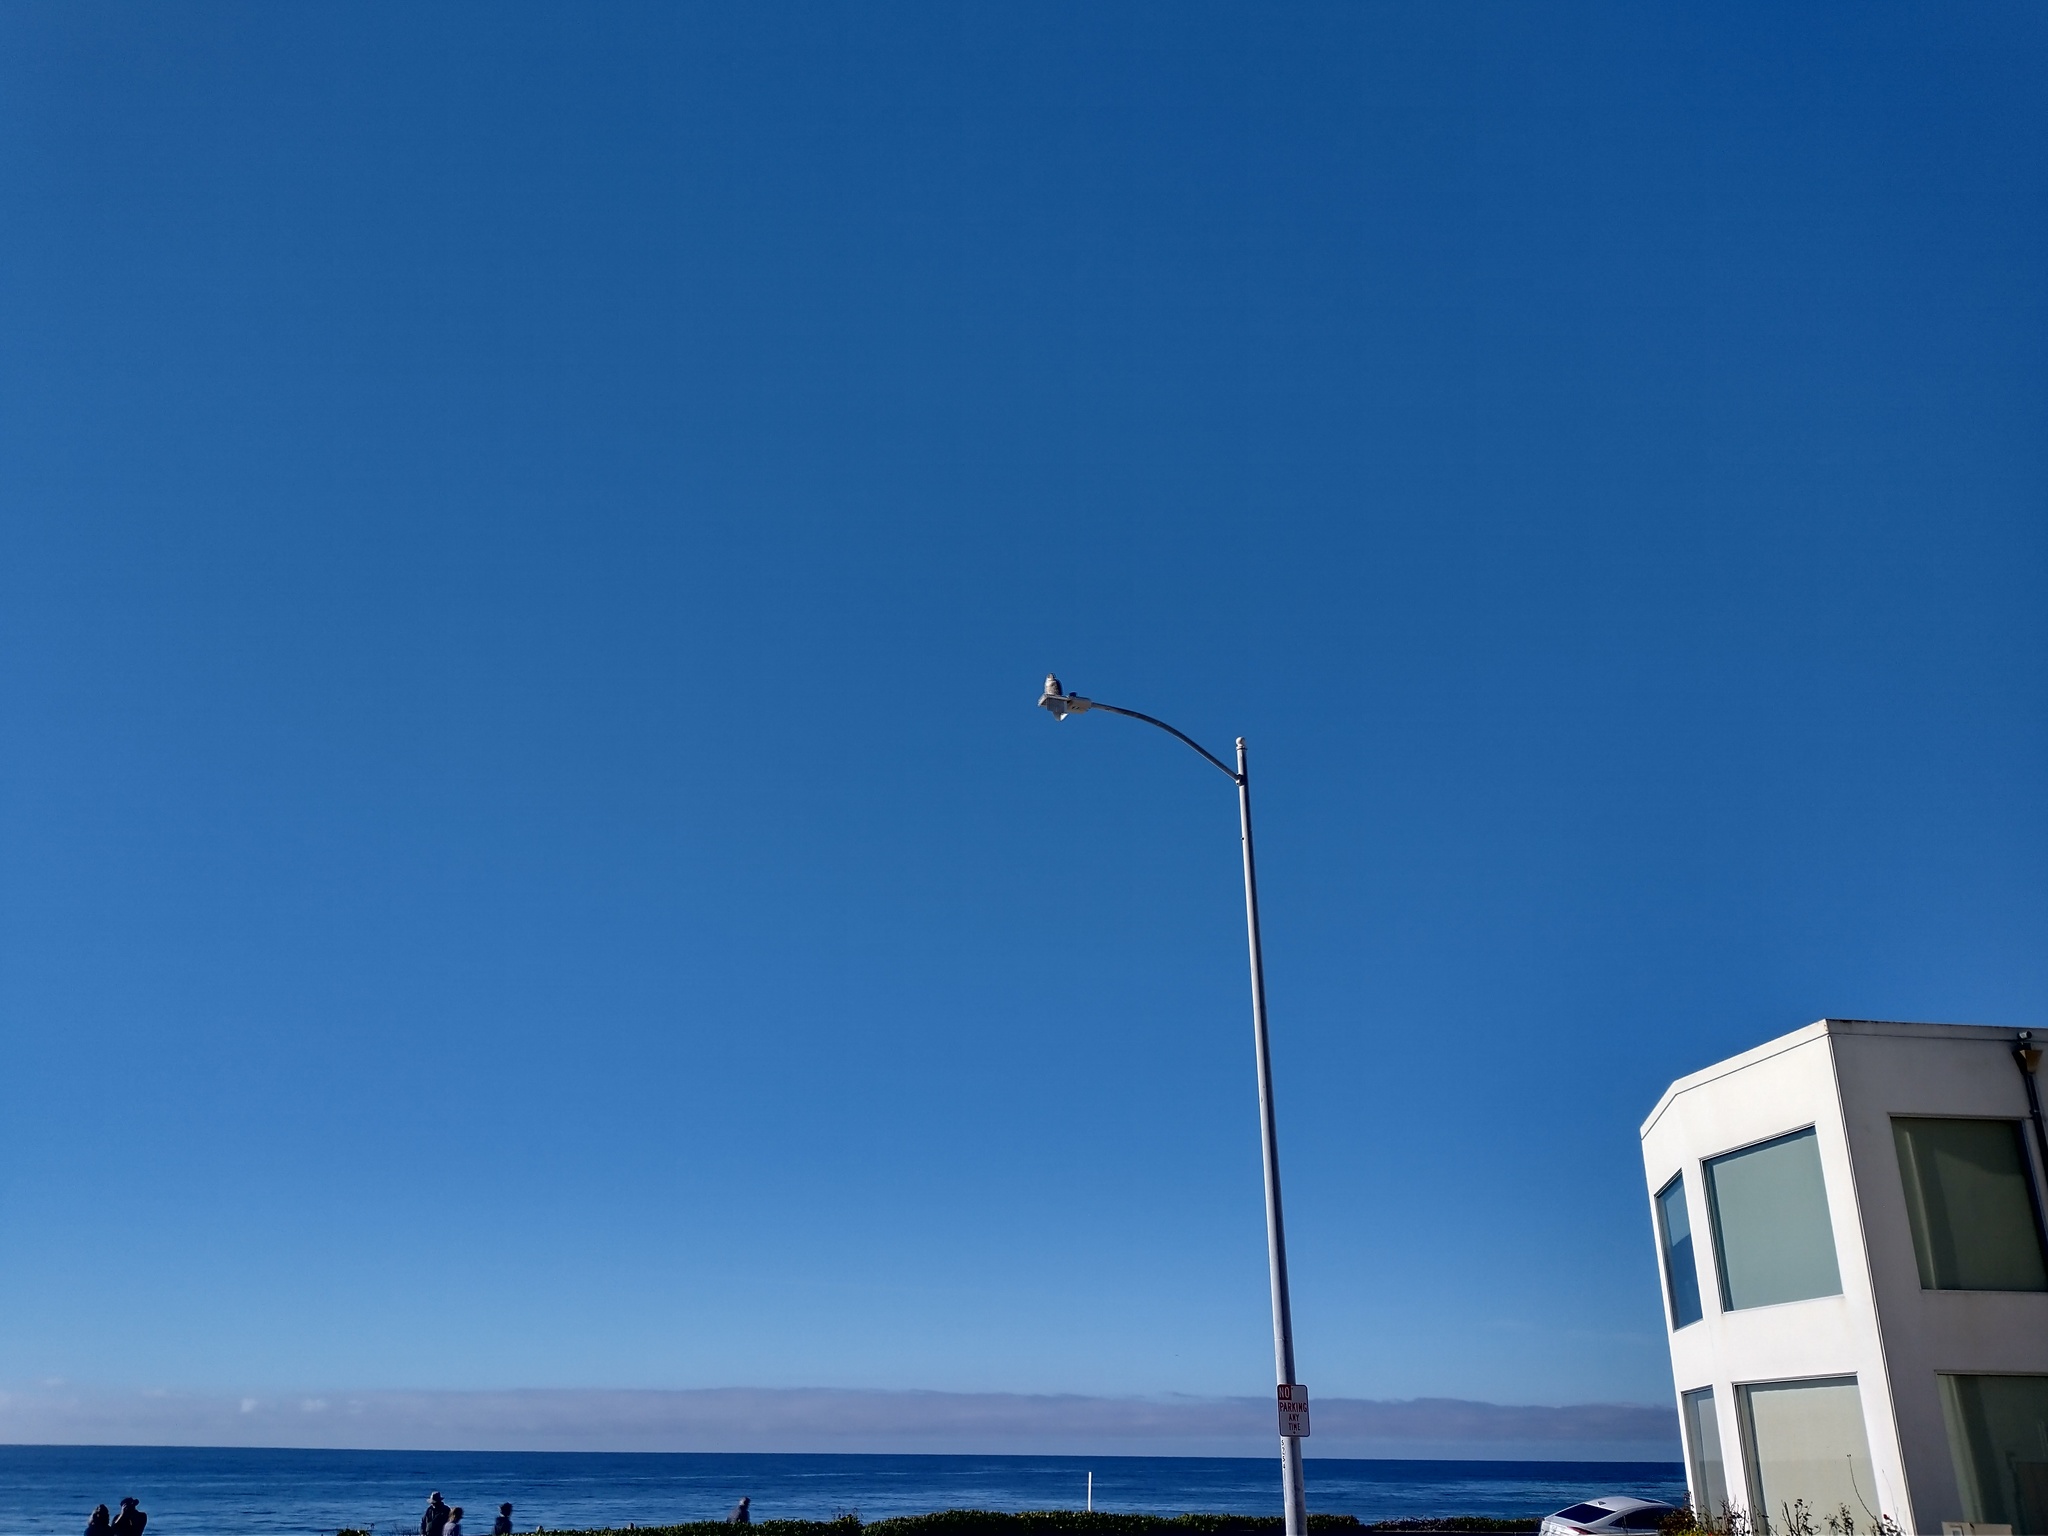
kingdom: Animalia
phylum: Chordata
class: Aves
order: Falconiformes
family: Falconidae
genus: Falco
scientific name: Falco peregrinus
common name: Peregrine falcon
